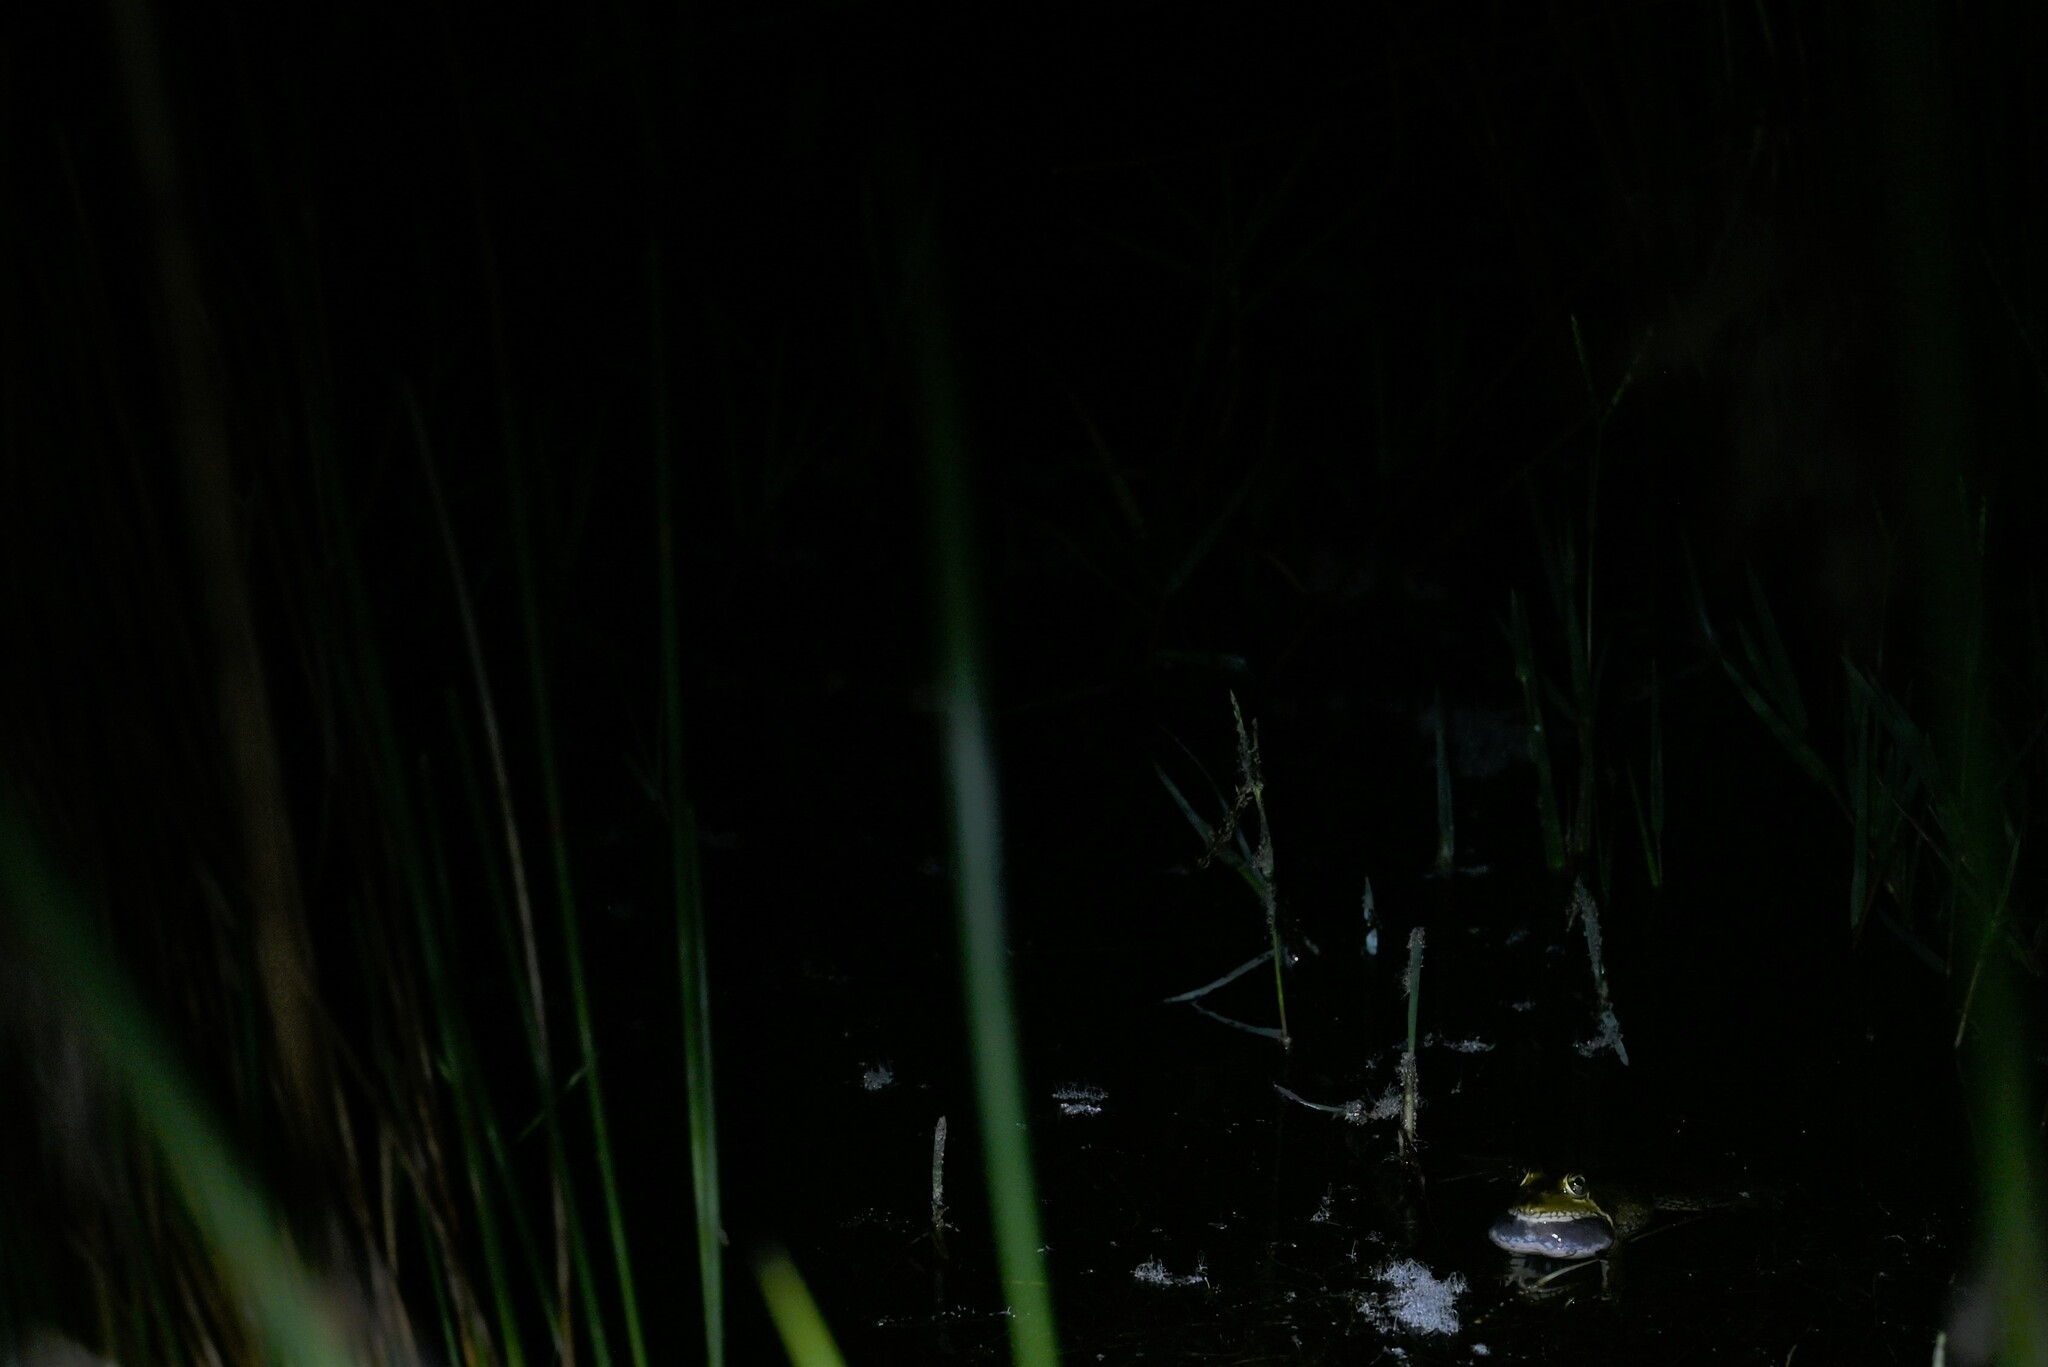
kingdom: Animalia
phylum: Chordata
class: Amphibia
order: Anura
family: Pyxicephalidae
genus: Amietia
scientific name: Amietia poyntoni
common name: Poynton's river frog
